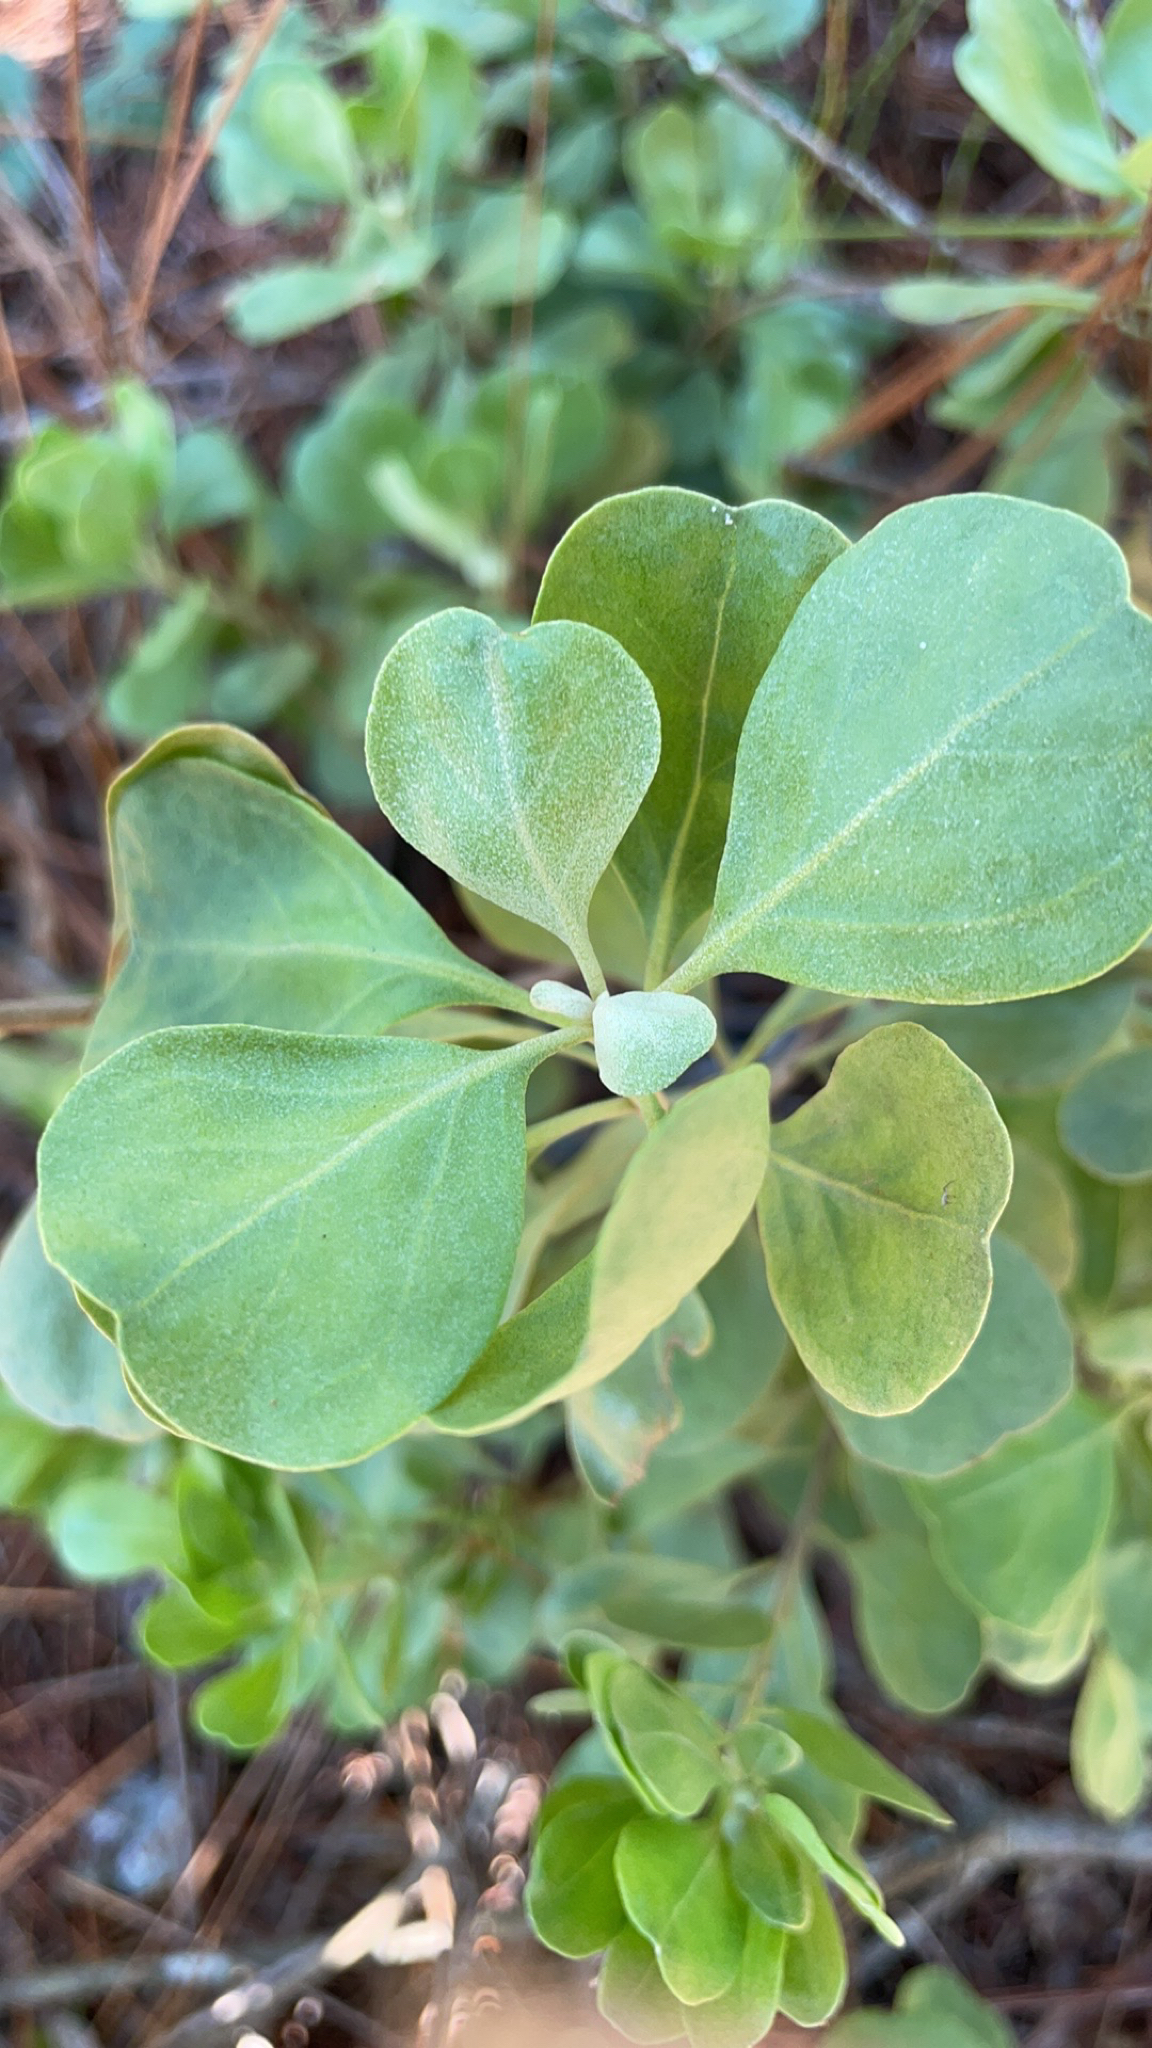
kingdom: Plantae
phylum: Tracheophyta
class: Magnoliopsida
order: Asterales
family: Asteraceae
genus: Garberia
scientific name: Garberia heterophylla
